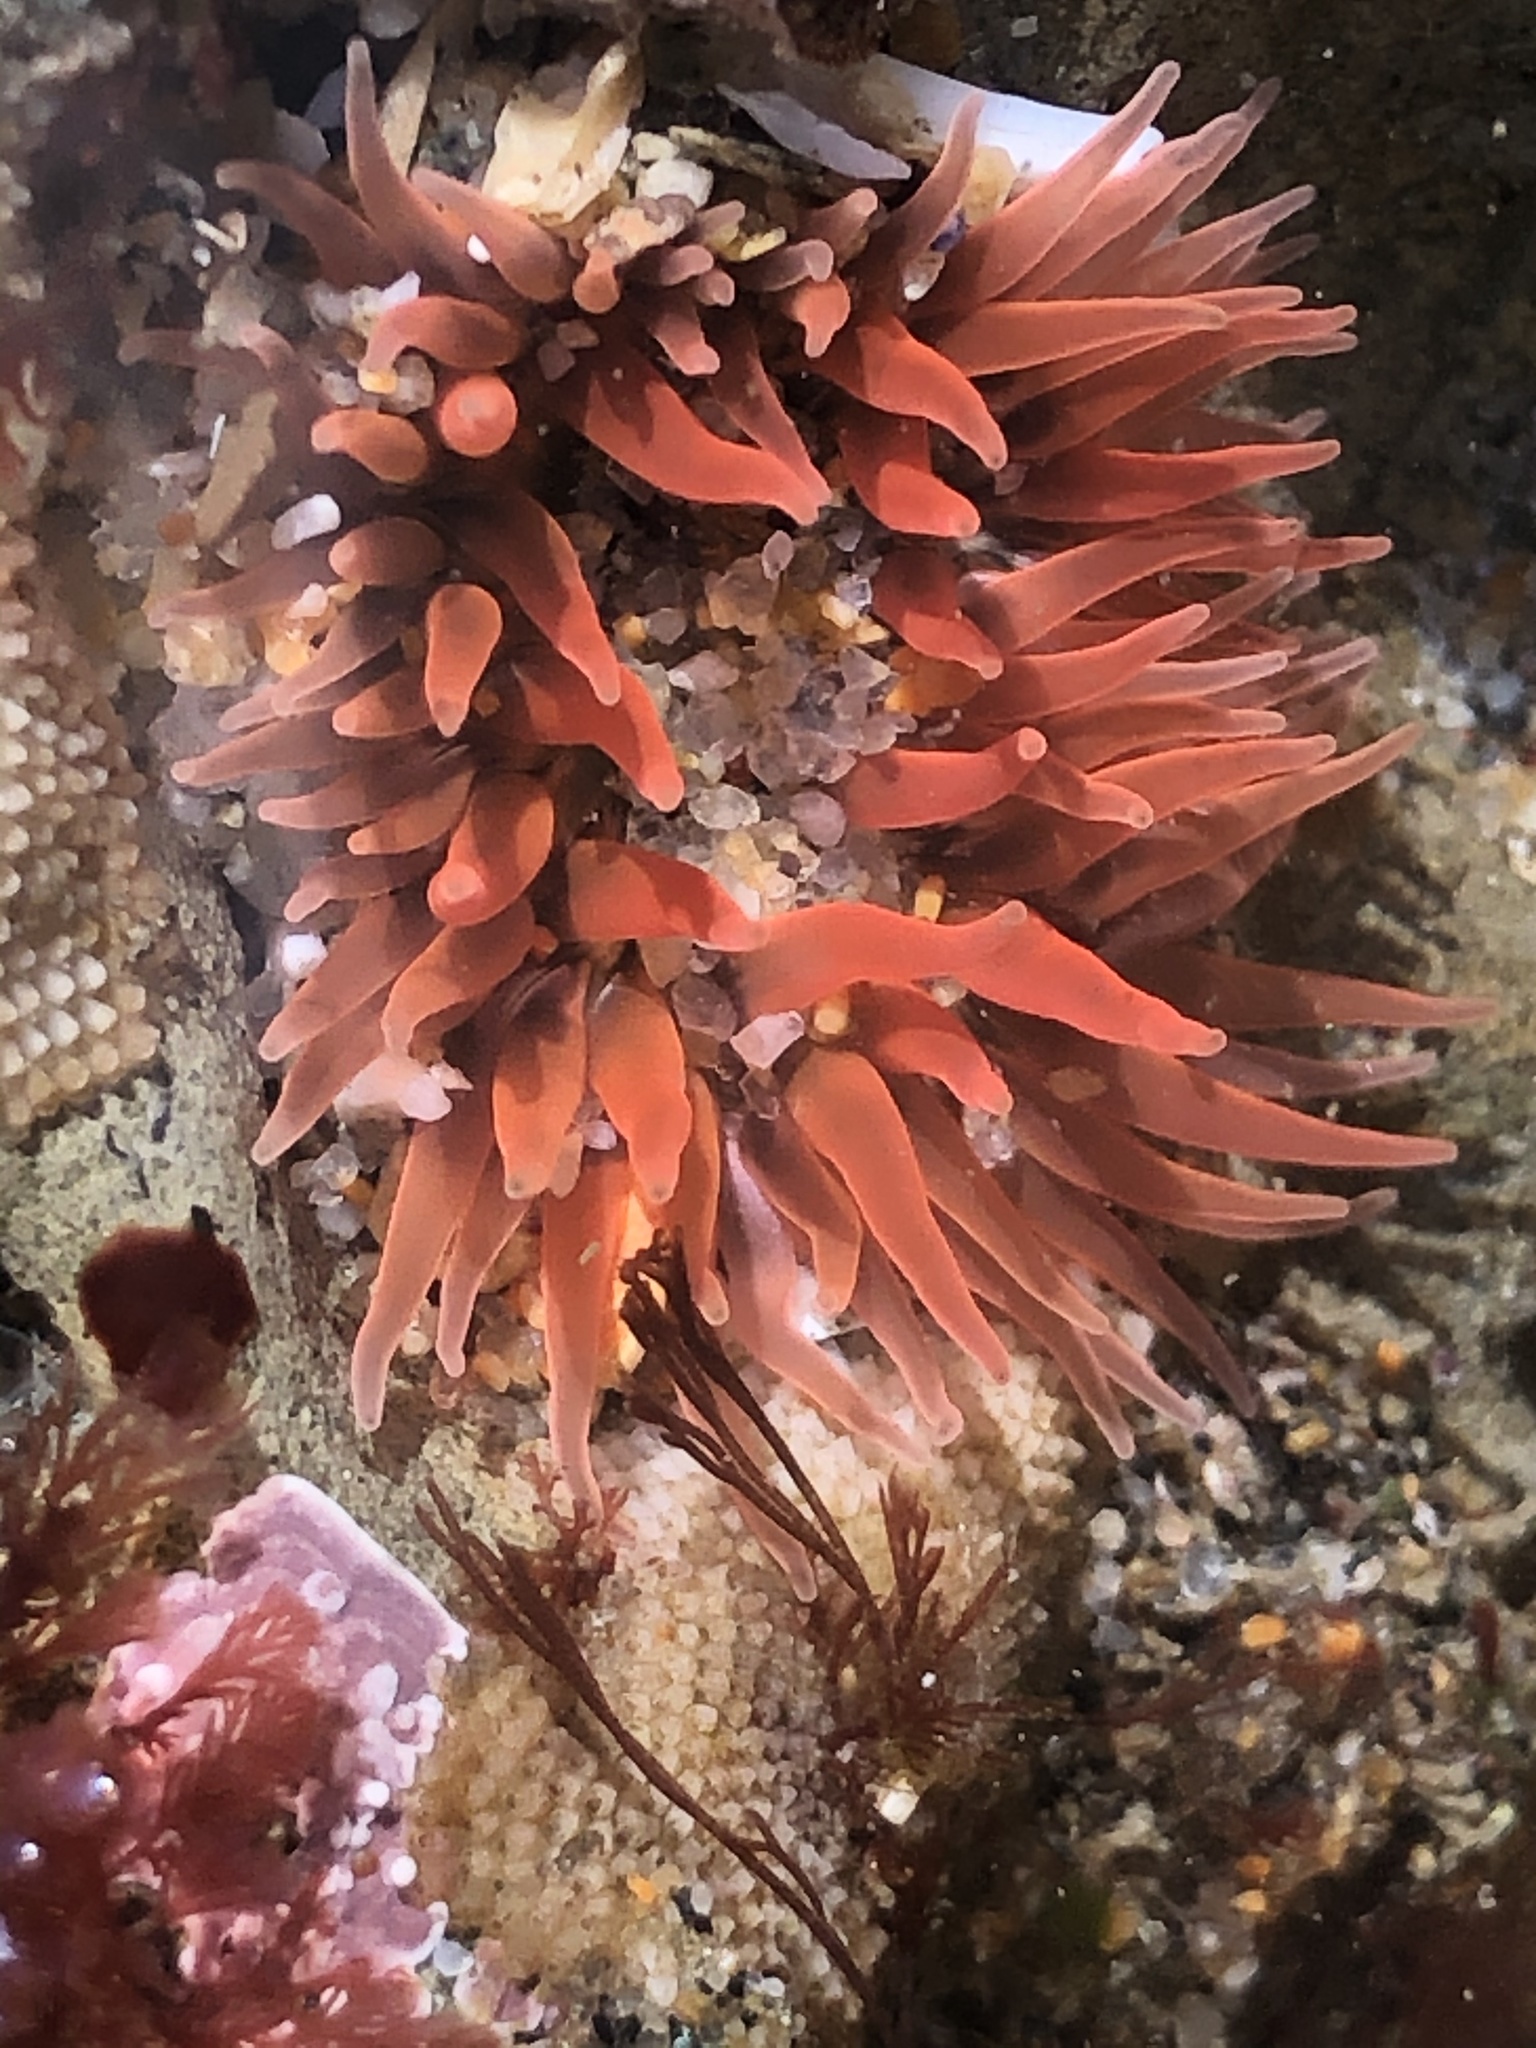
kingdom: Animalia
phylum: Cnidaria
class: Anthozoa
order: Actiniaria
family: Actiniidae
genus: Anthopleura
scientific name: Anthopleura artemisia
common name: Buried sea anemone
